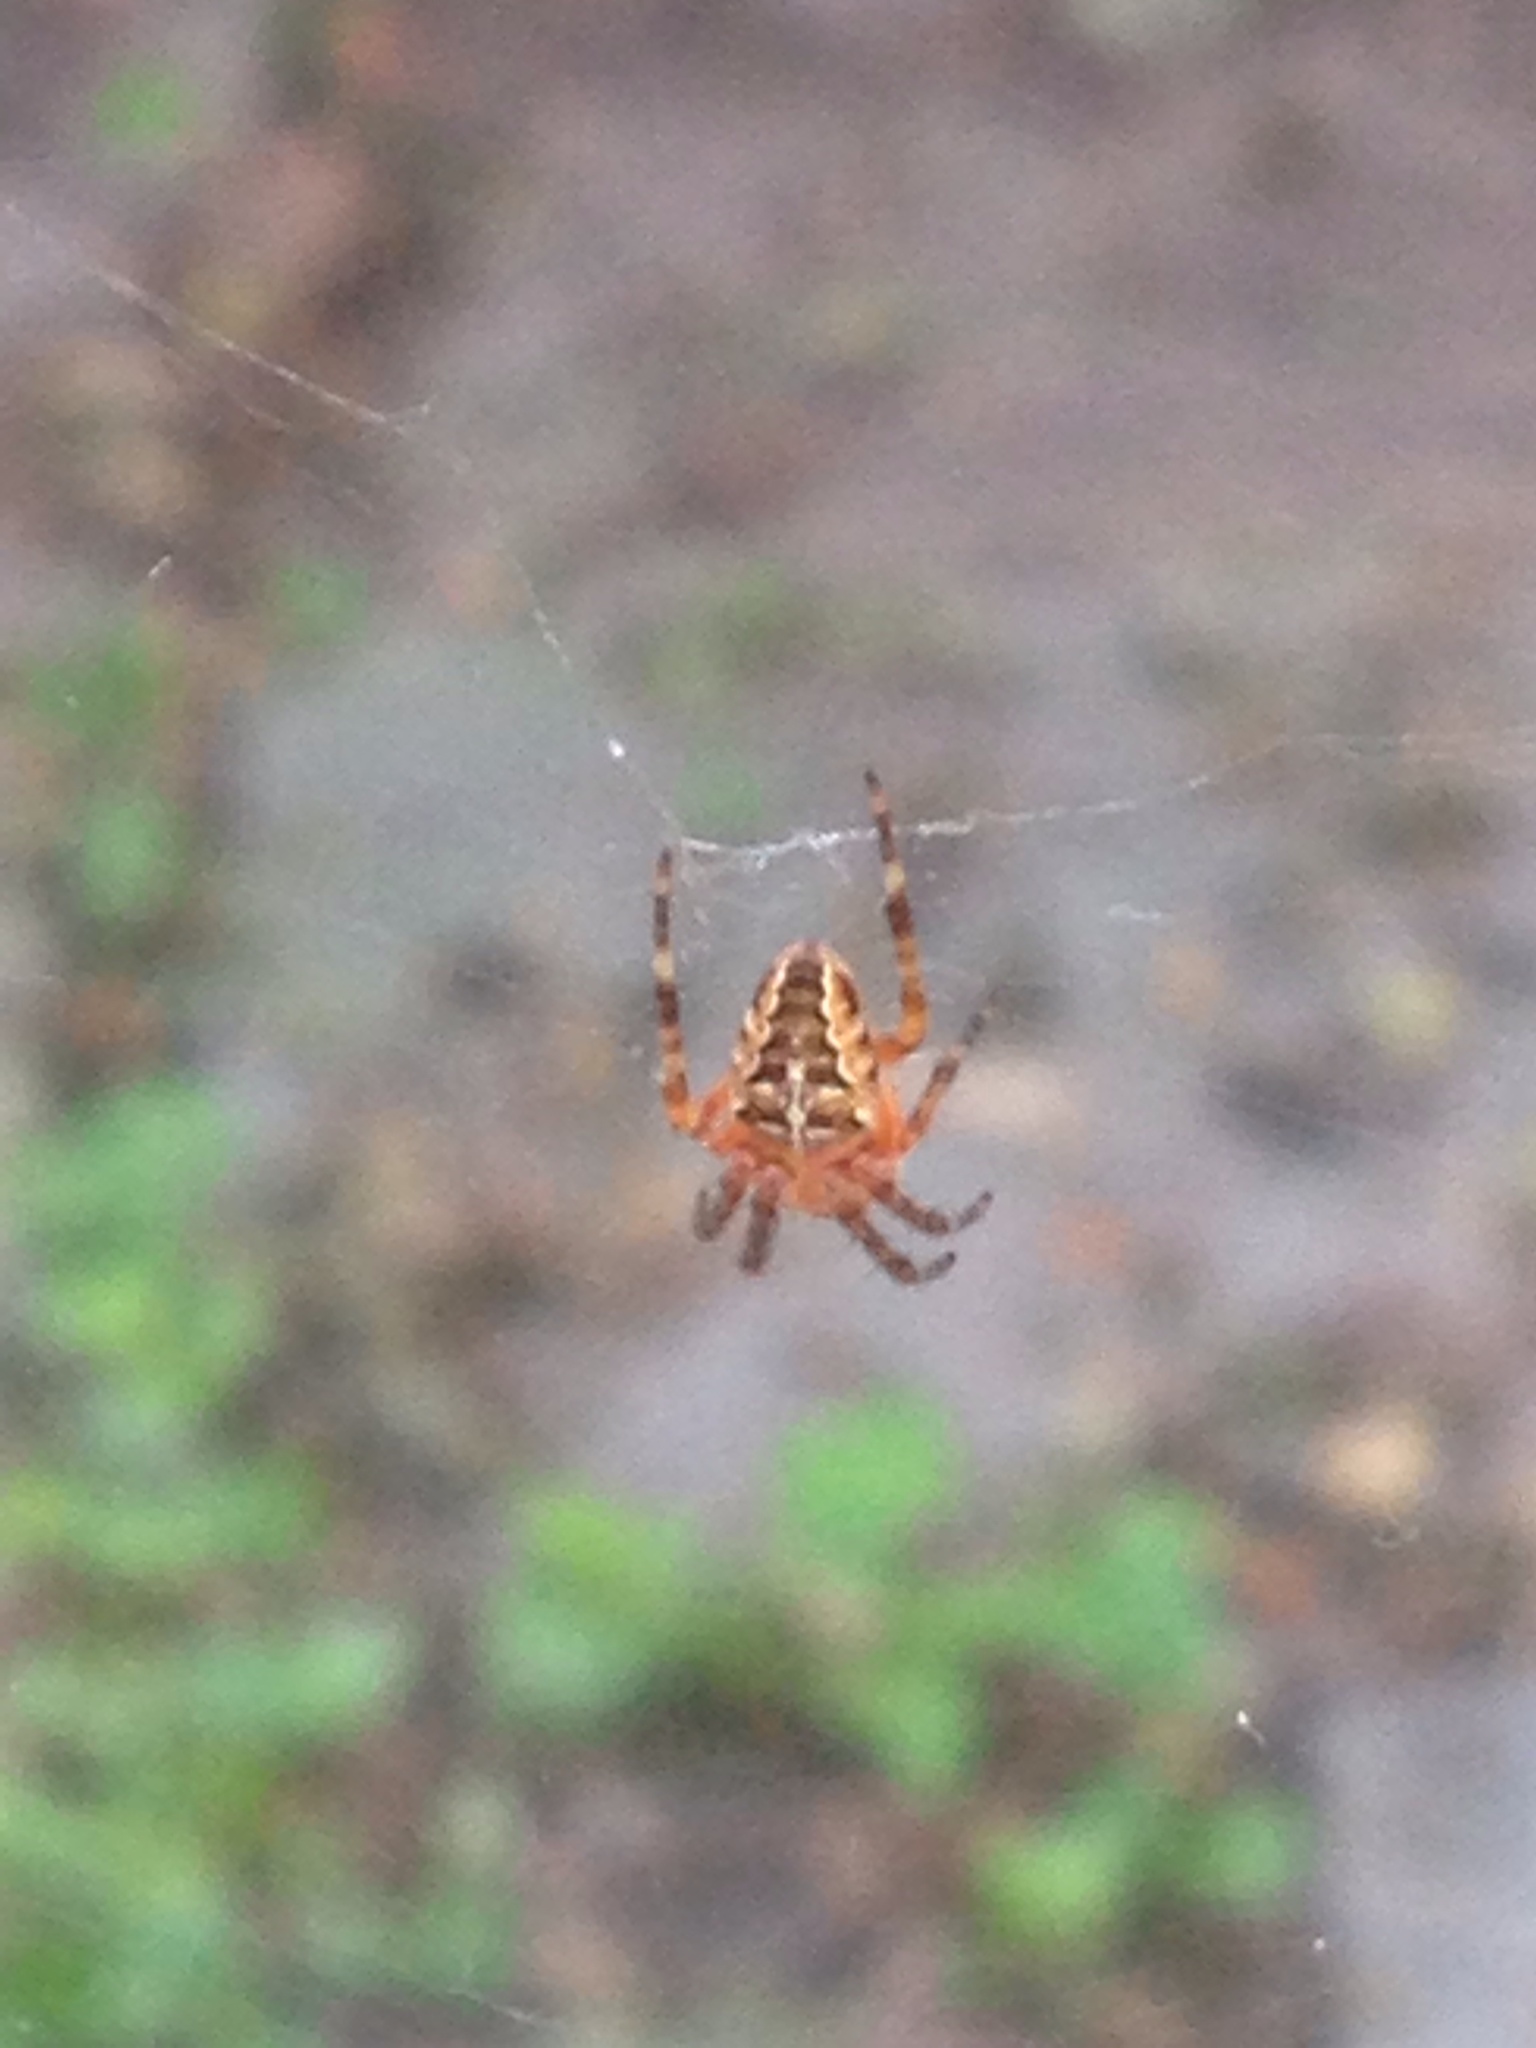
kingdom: Animalia
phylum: Arthropoda
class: Arachnida
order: Araneae
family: Araneidae
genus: Araneus
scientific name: Araneus diadematus
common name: Cross orbweaver
